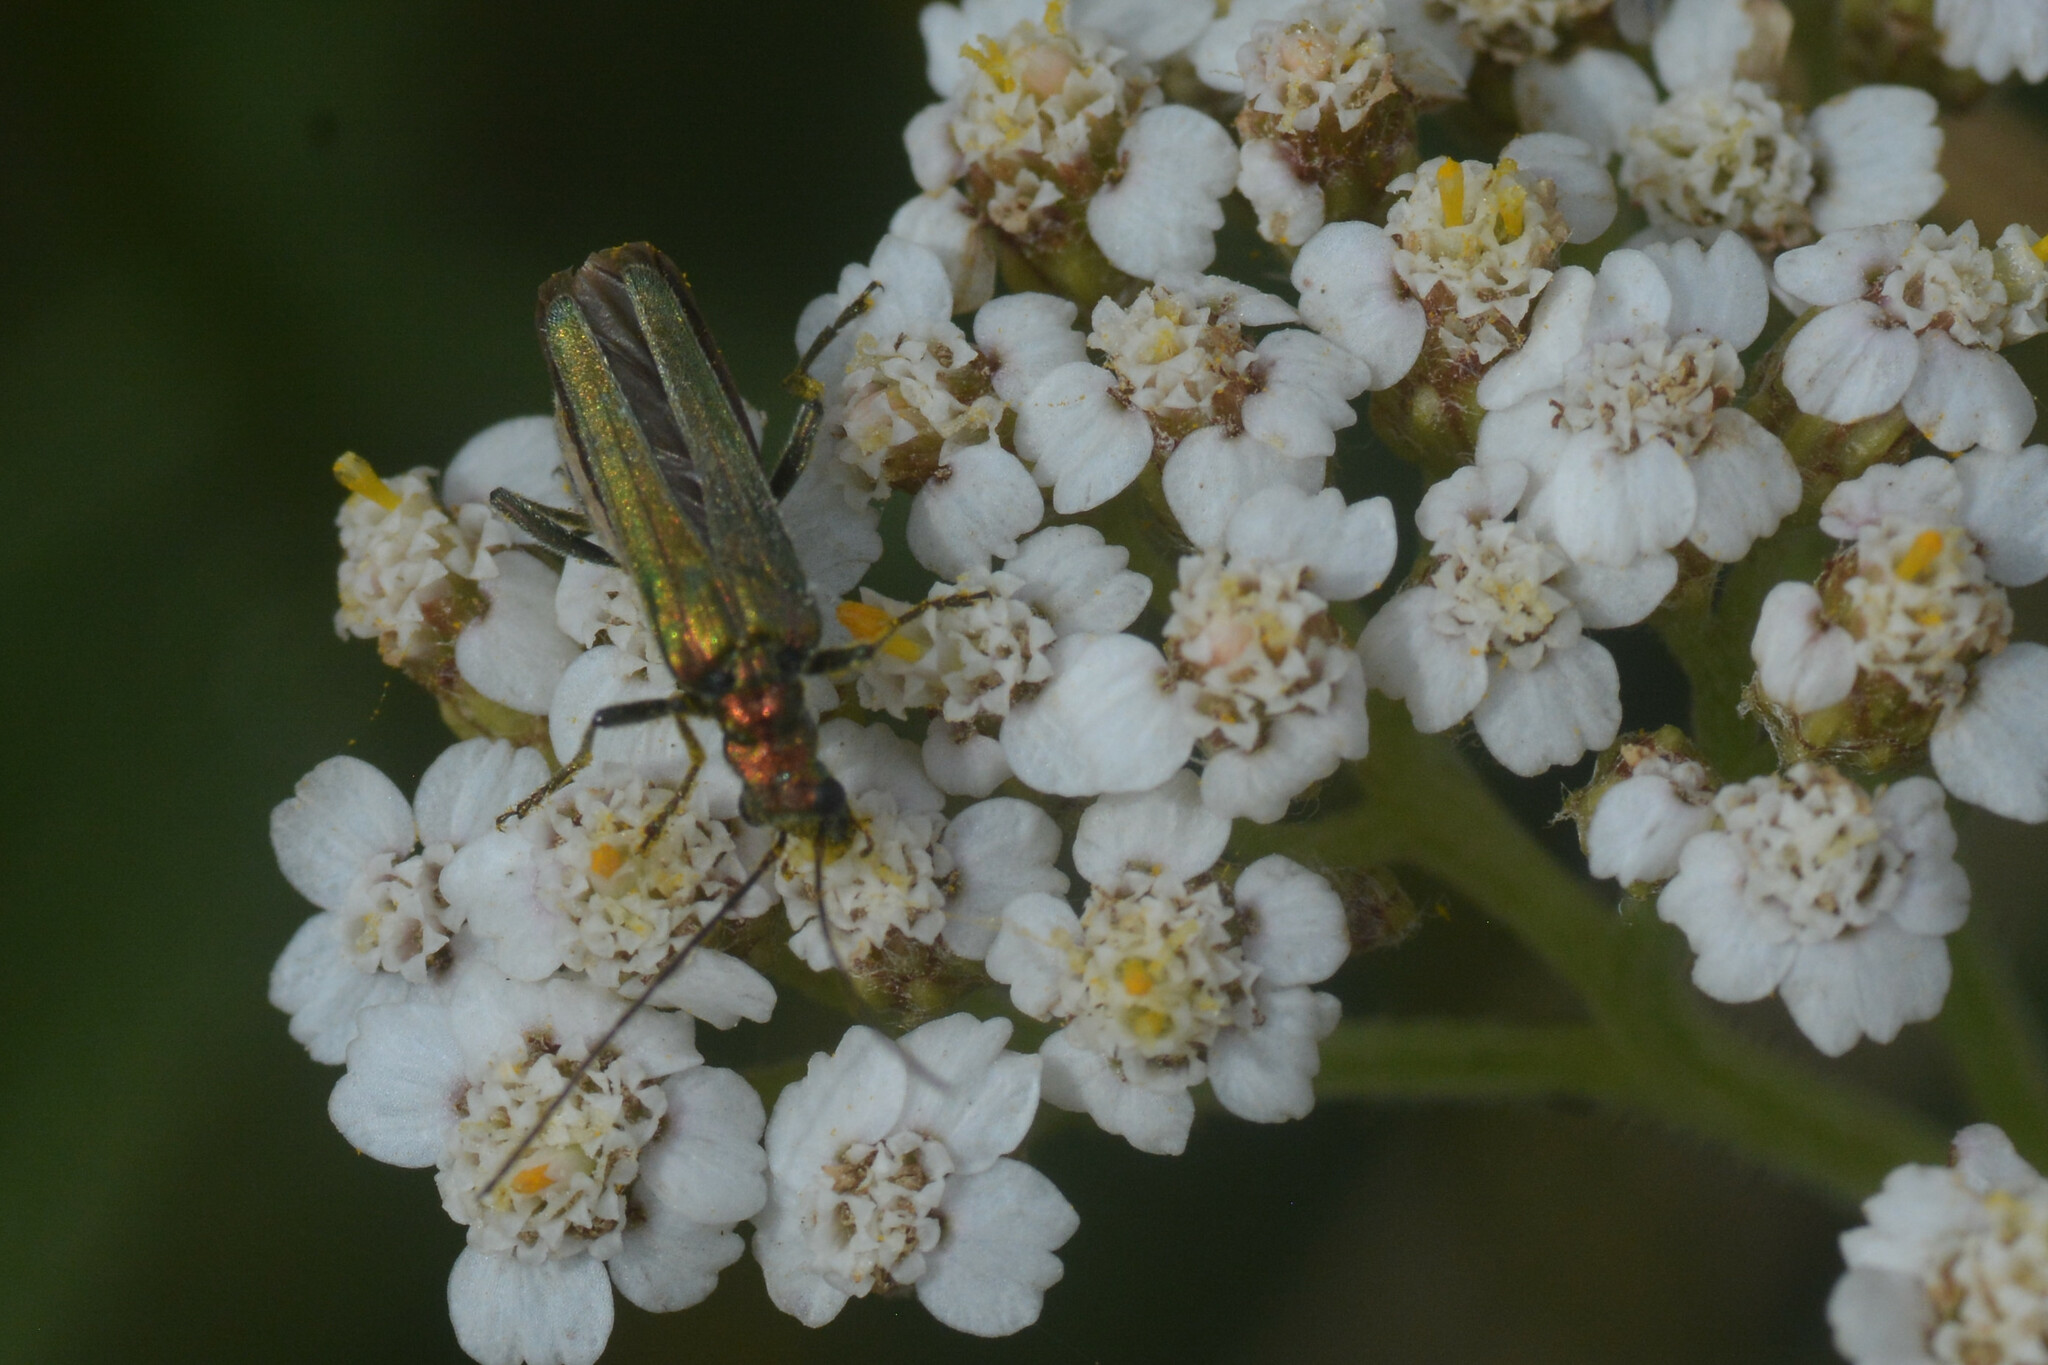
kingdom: Animalia
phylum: Arthropoda
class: Insecta
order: Coleoptera
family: Oedemeridae
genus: Oedemera
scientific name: Oedemera nobilis
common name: Swollen-thighed beetle
